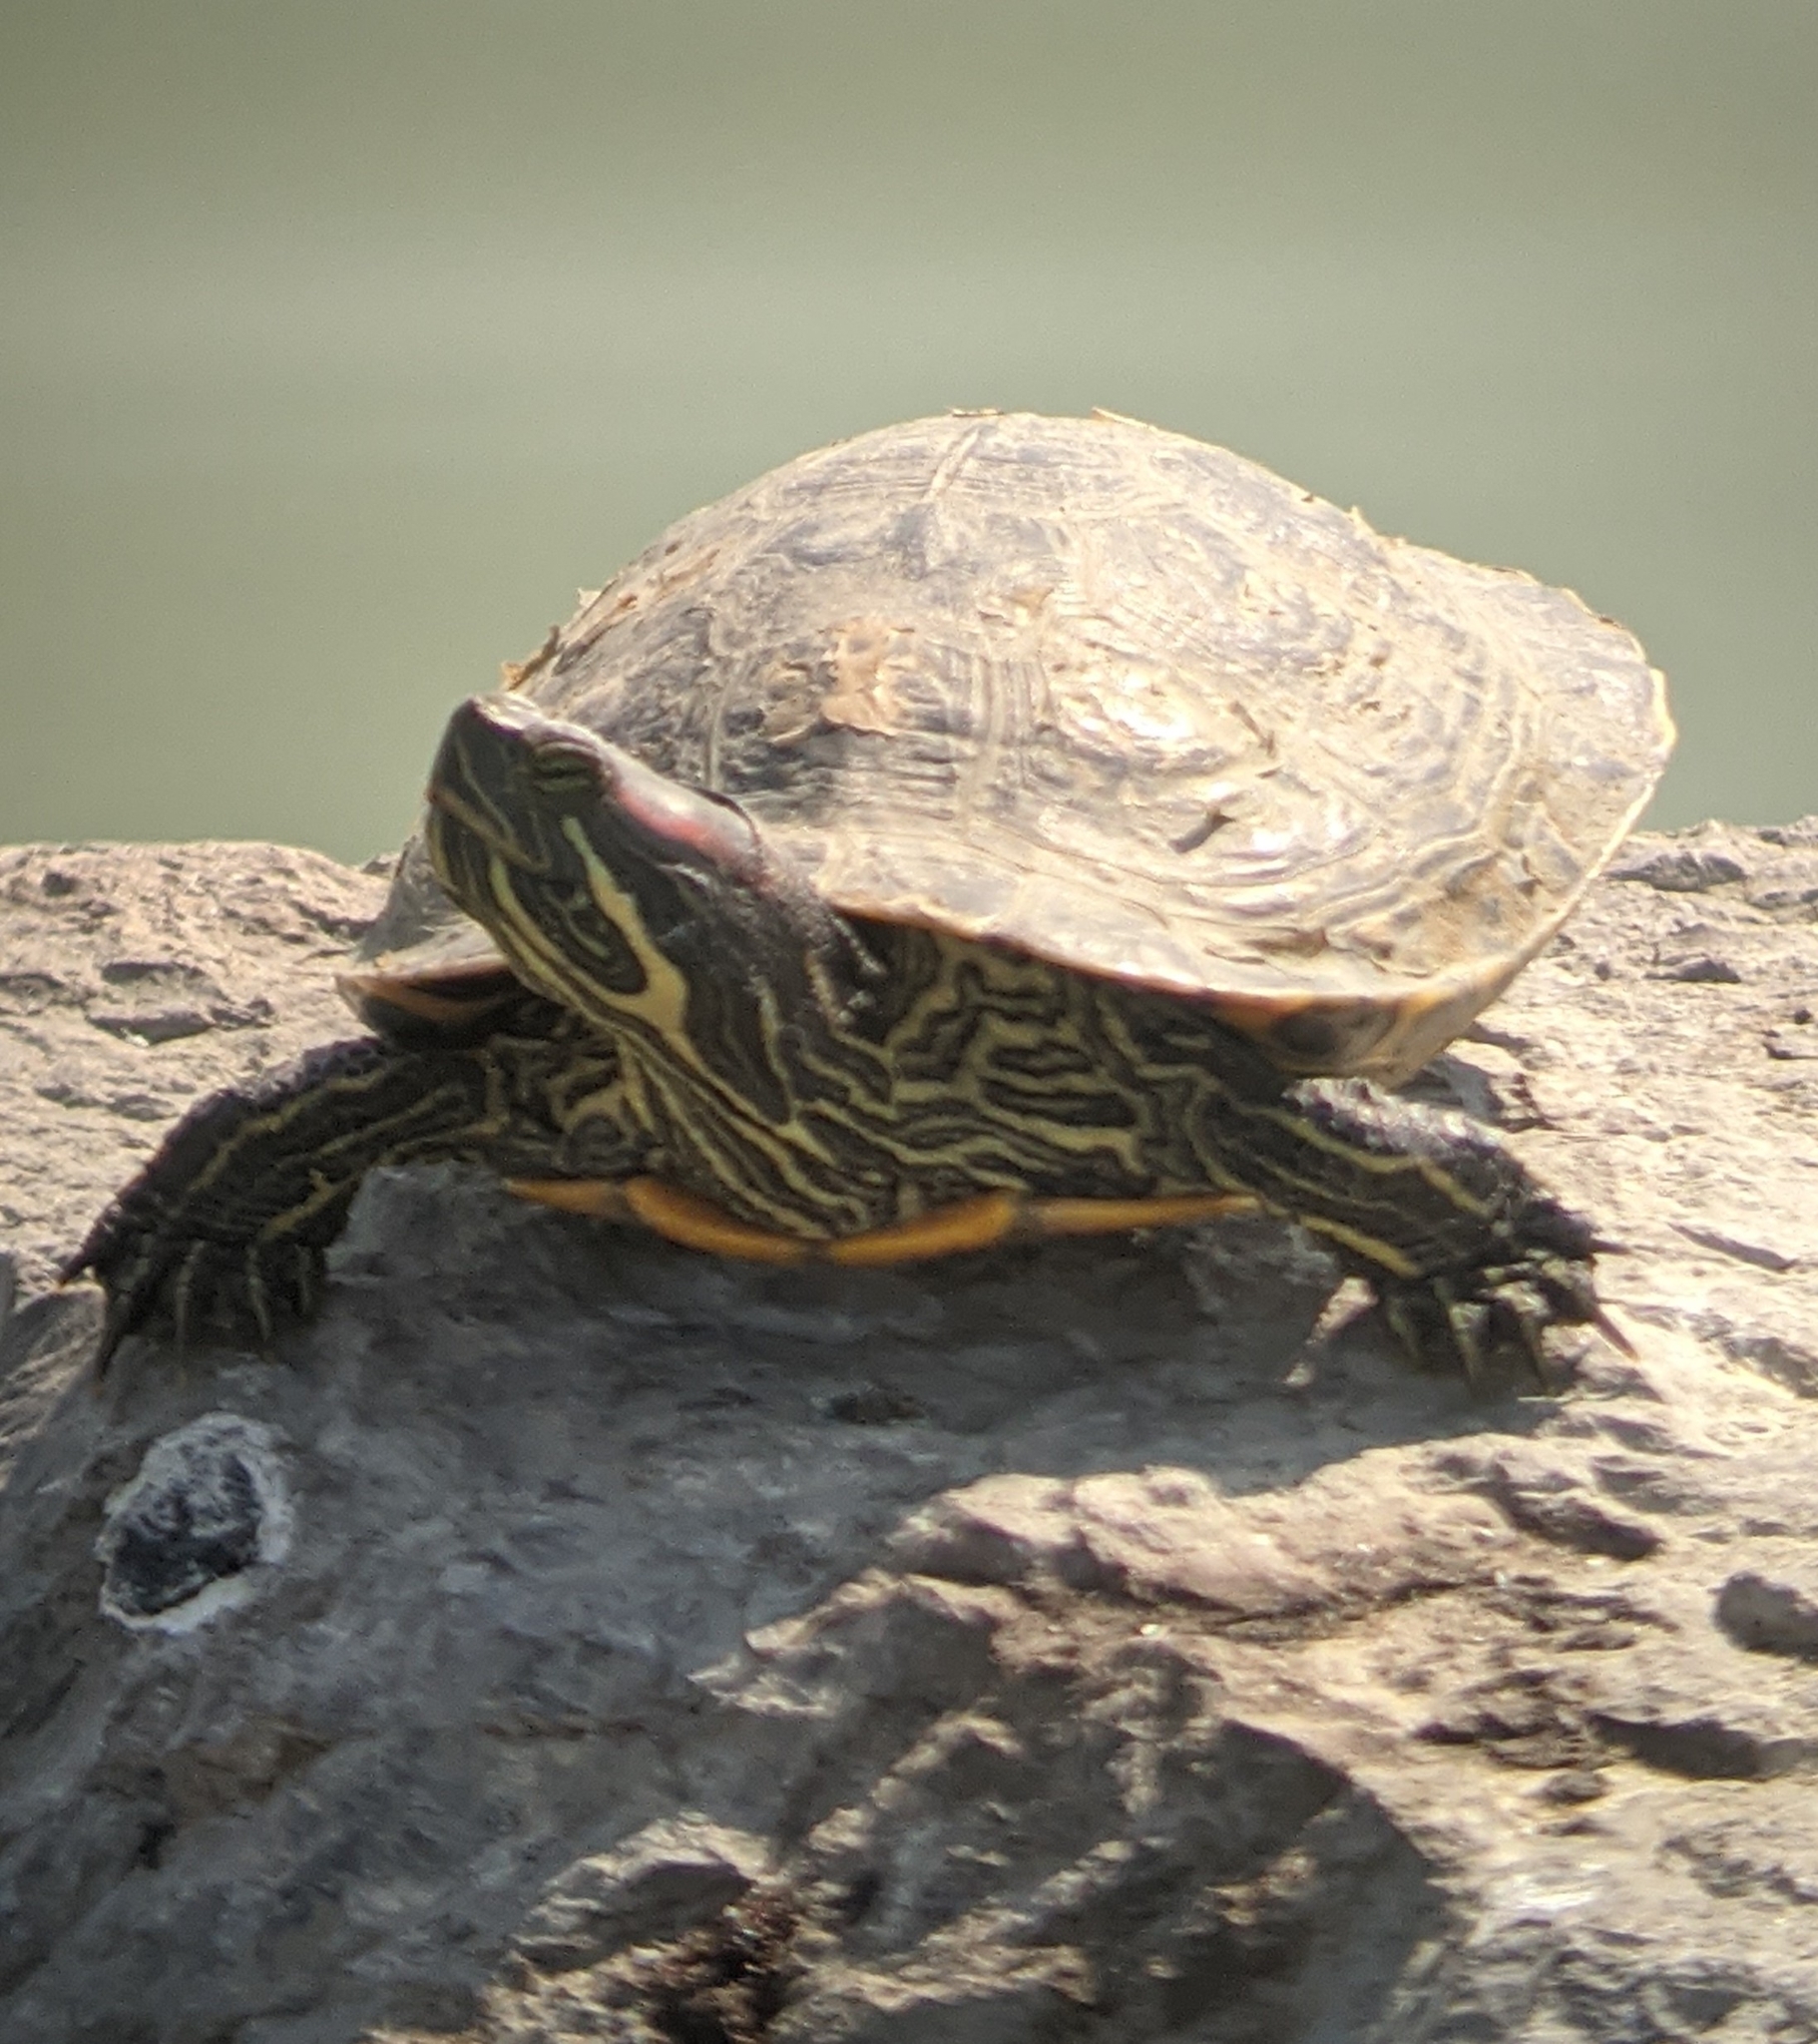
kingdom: Animalia
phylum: Chordata
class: Testudines
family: Emydidae
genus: Trachemys
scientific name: Trachemys scripta
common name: Slider
